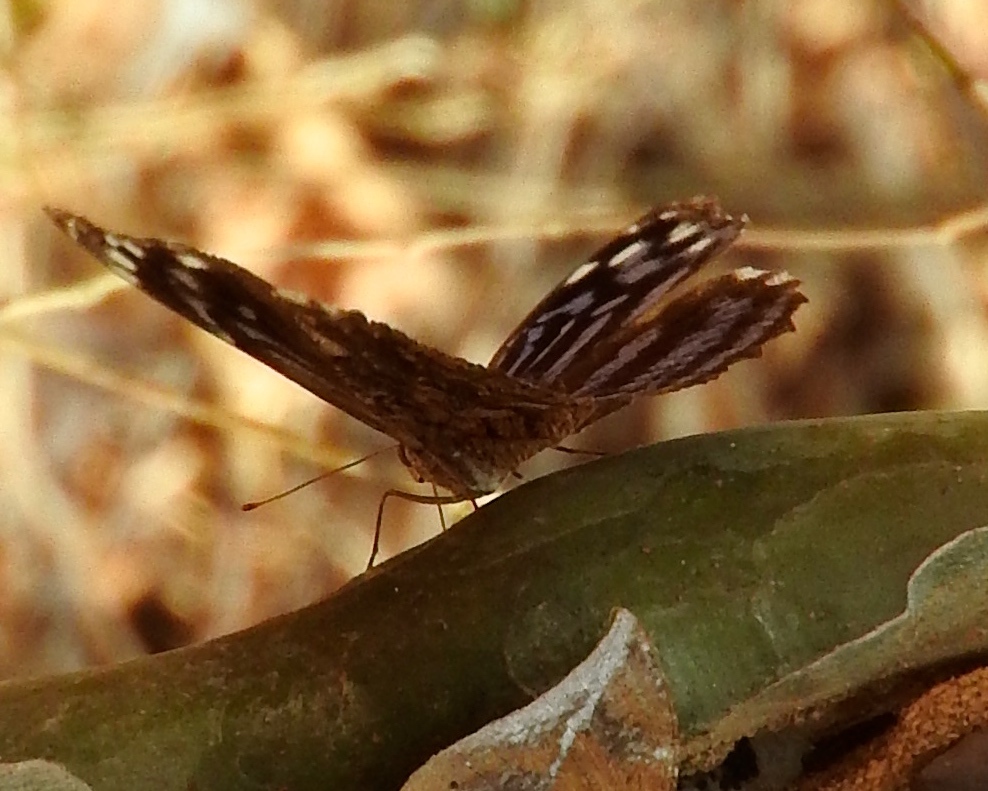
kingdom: Animalia
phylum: Arthropoda
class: Insecta
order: Lepidoptera
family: Nymphalidae
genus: Myscelia
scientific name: Myscelia ethusa
